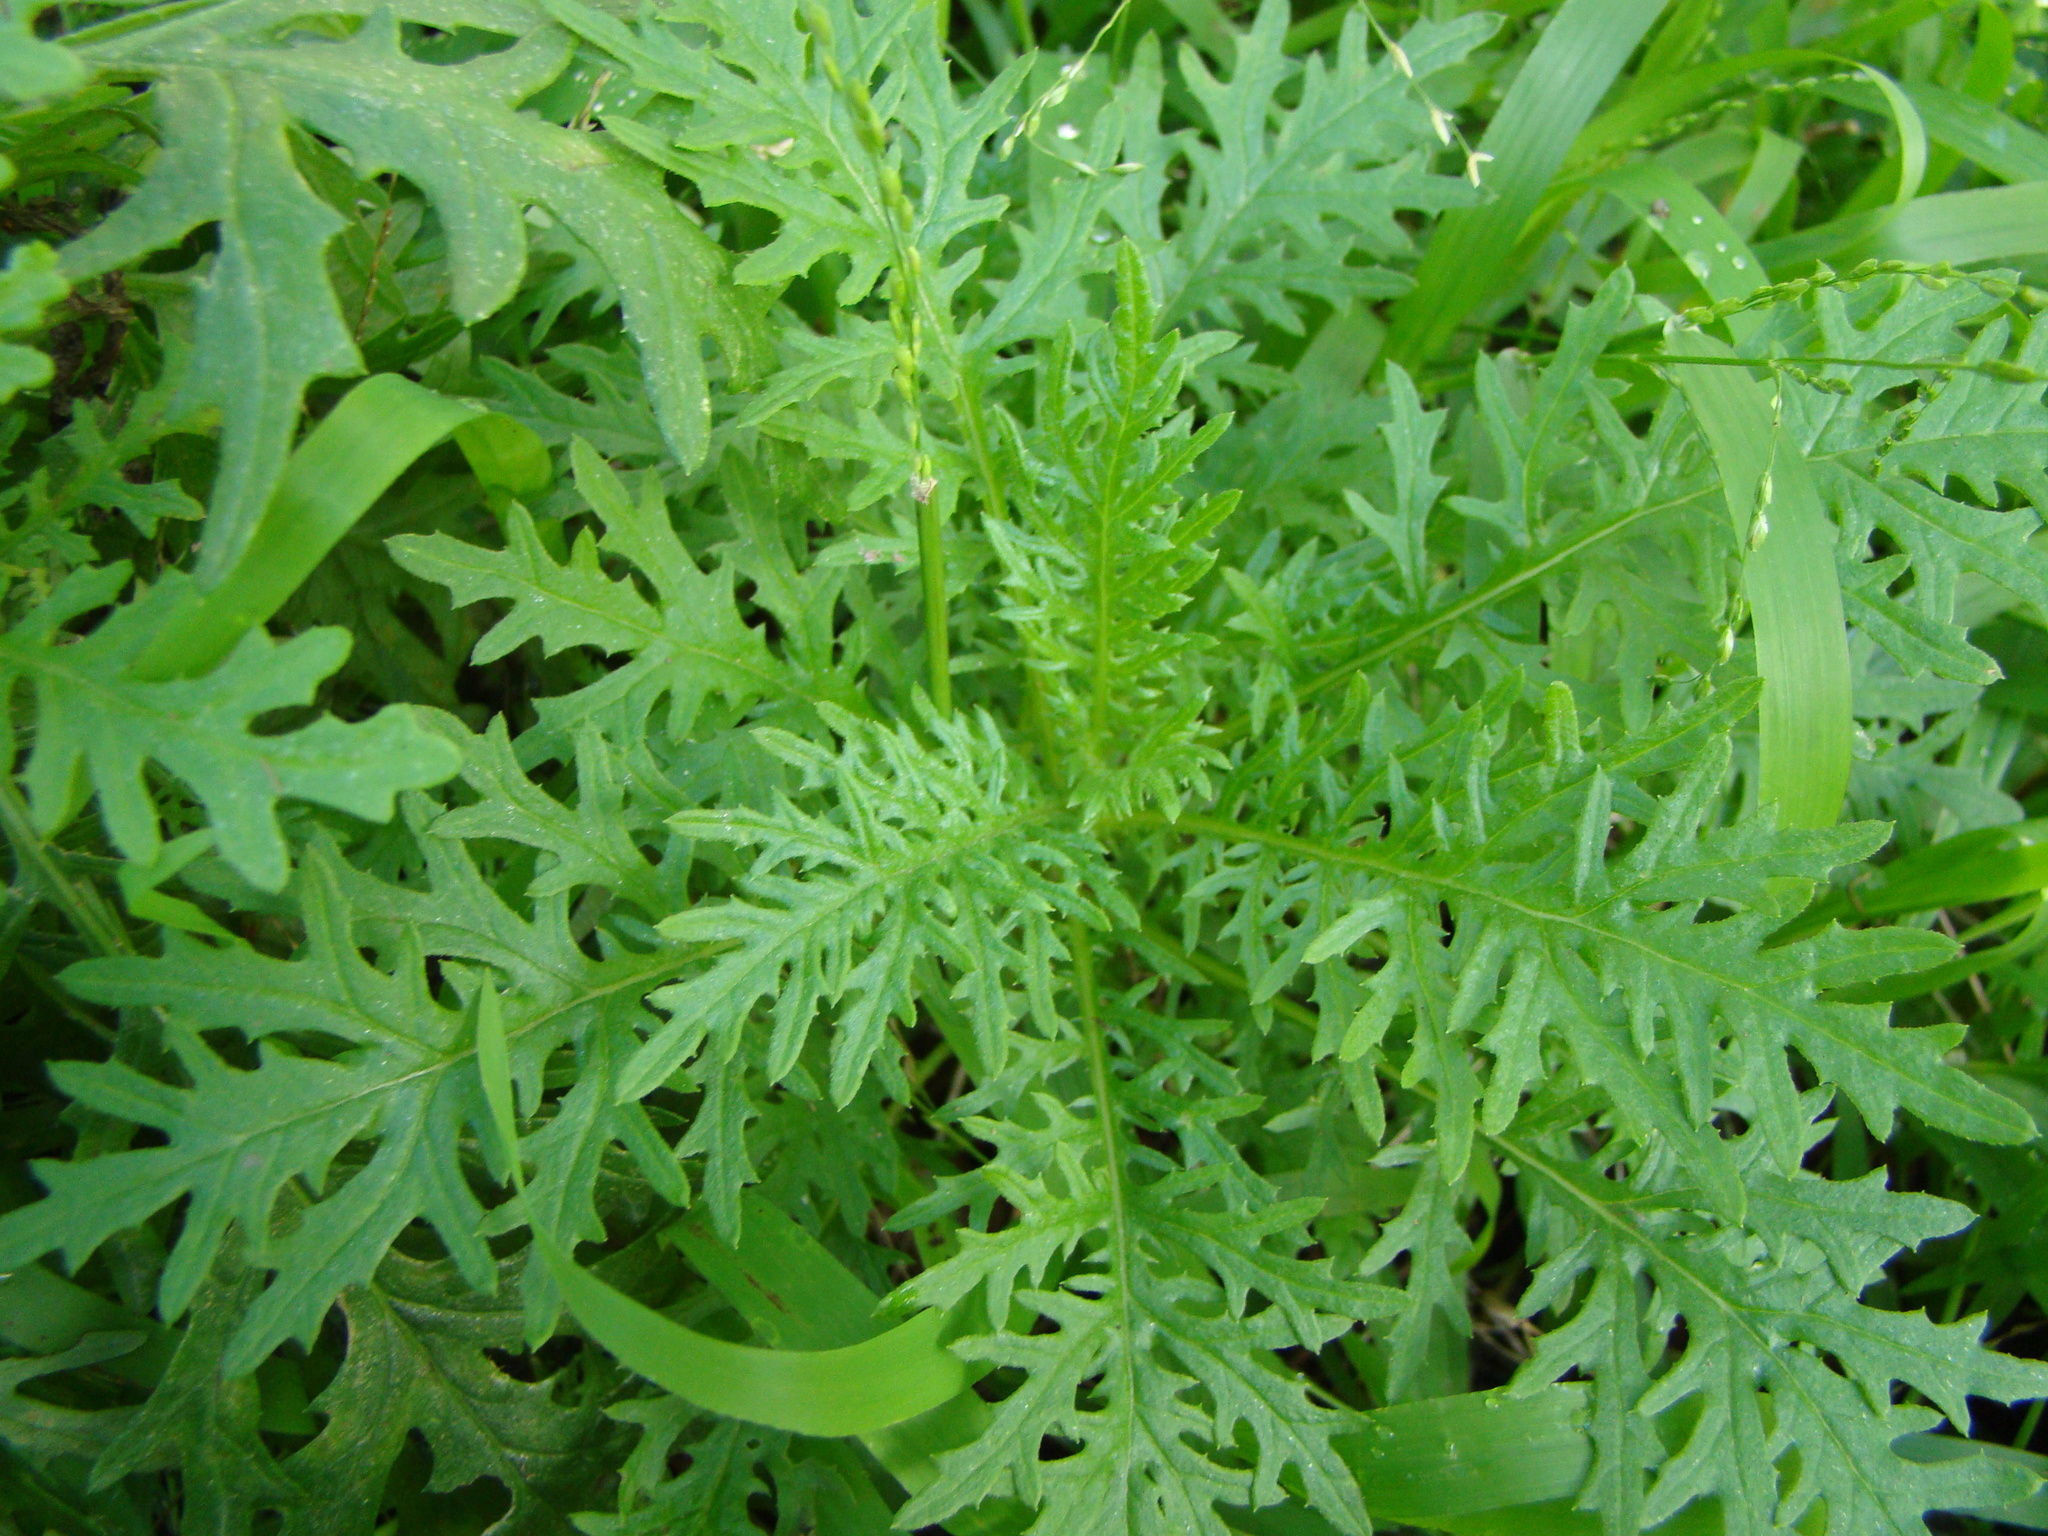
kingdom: Plantae
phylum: Tracheophyta
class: Magnoliopsida
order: Asterales
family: Asteraceae
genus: Senecio
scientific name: Senecio bipinnatisectus
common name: Australian fireweed
